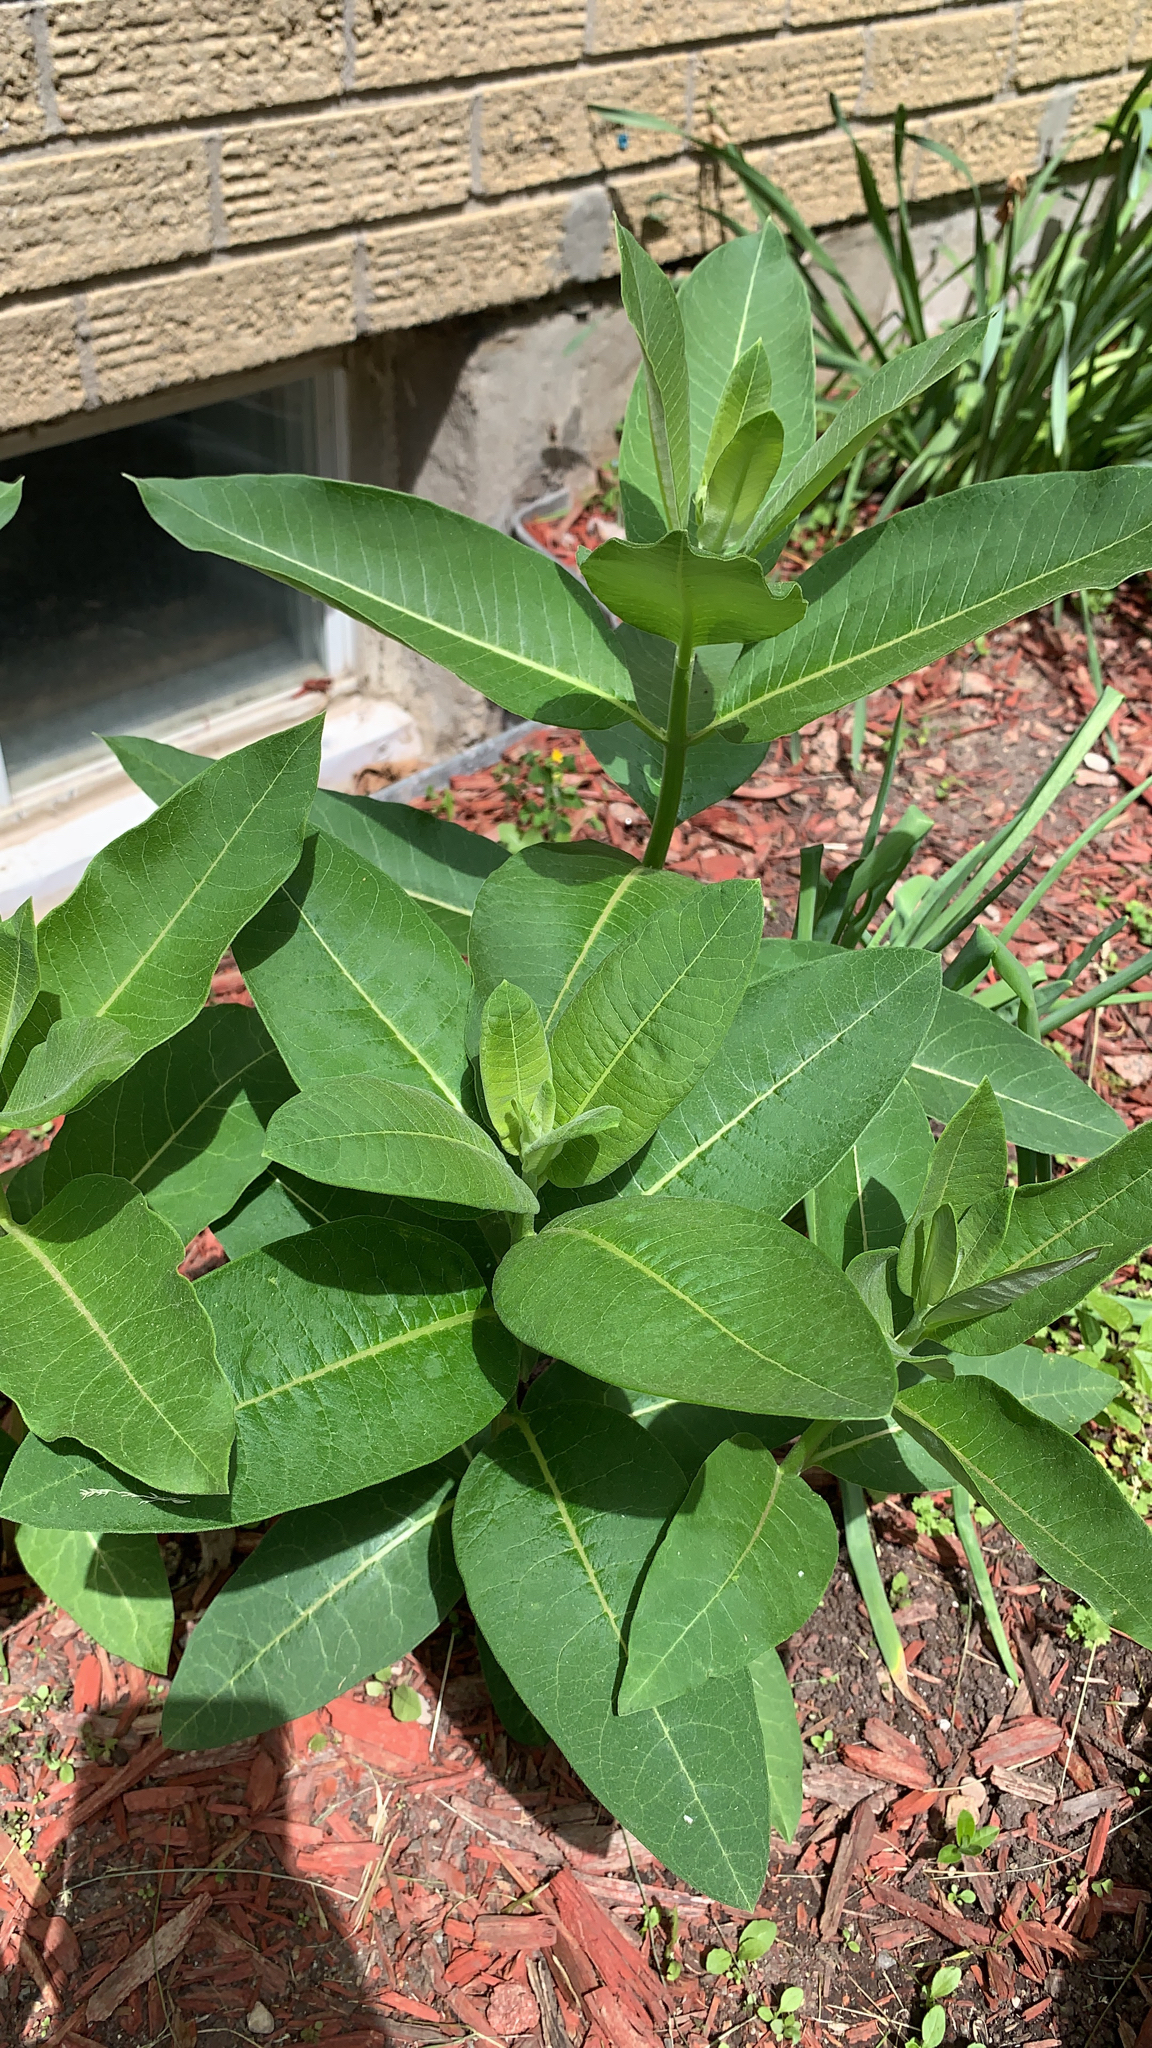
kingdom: Plantae
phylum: Tracheophyta
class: Magnoliopsida
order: Gentianales
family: Apocynaceae
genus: Asclepias
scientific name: Asclepias syriaca
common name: Common milkweed
